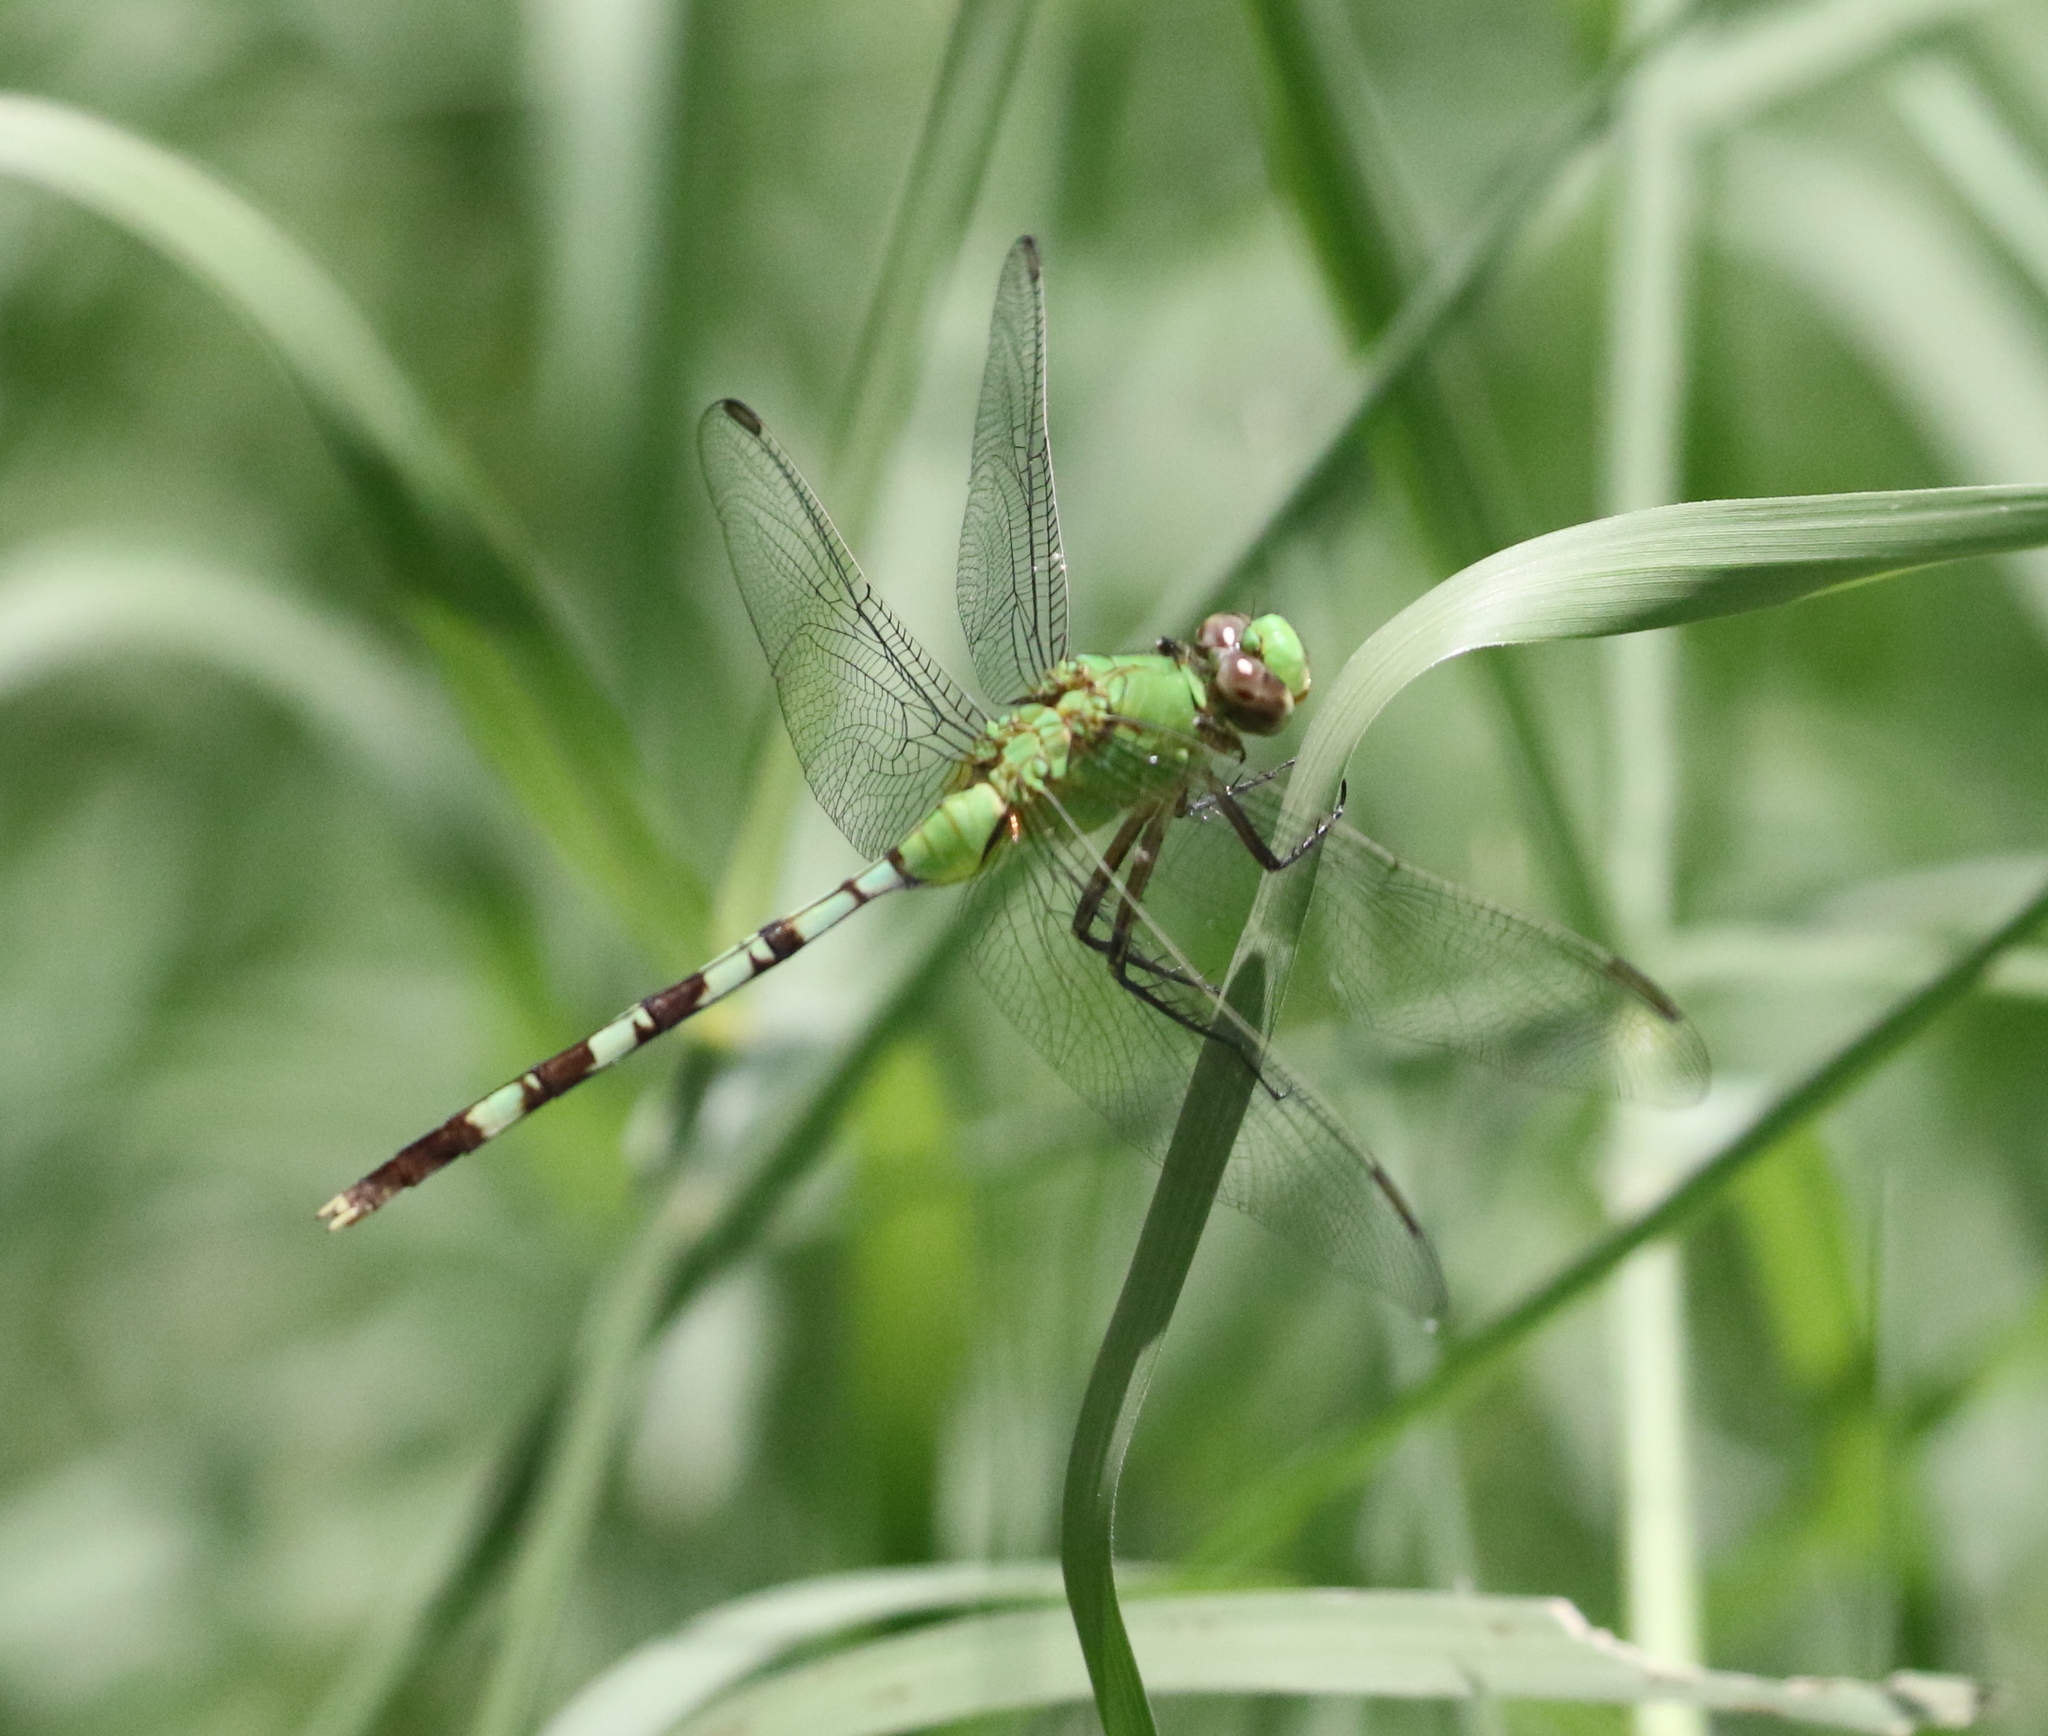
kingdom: Animalia
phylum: Arthropoda
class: Insecta
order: Odonata
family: Libellulidae
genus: Erythemis
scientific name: Erythemis vesiculosa
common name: Great pondhawk
